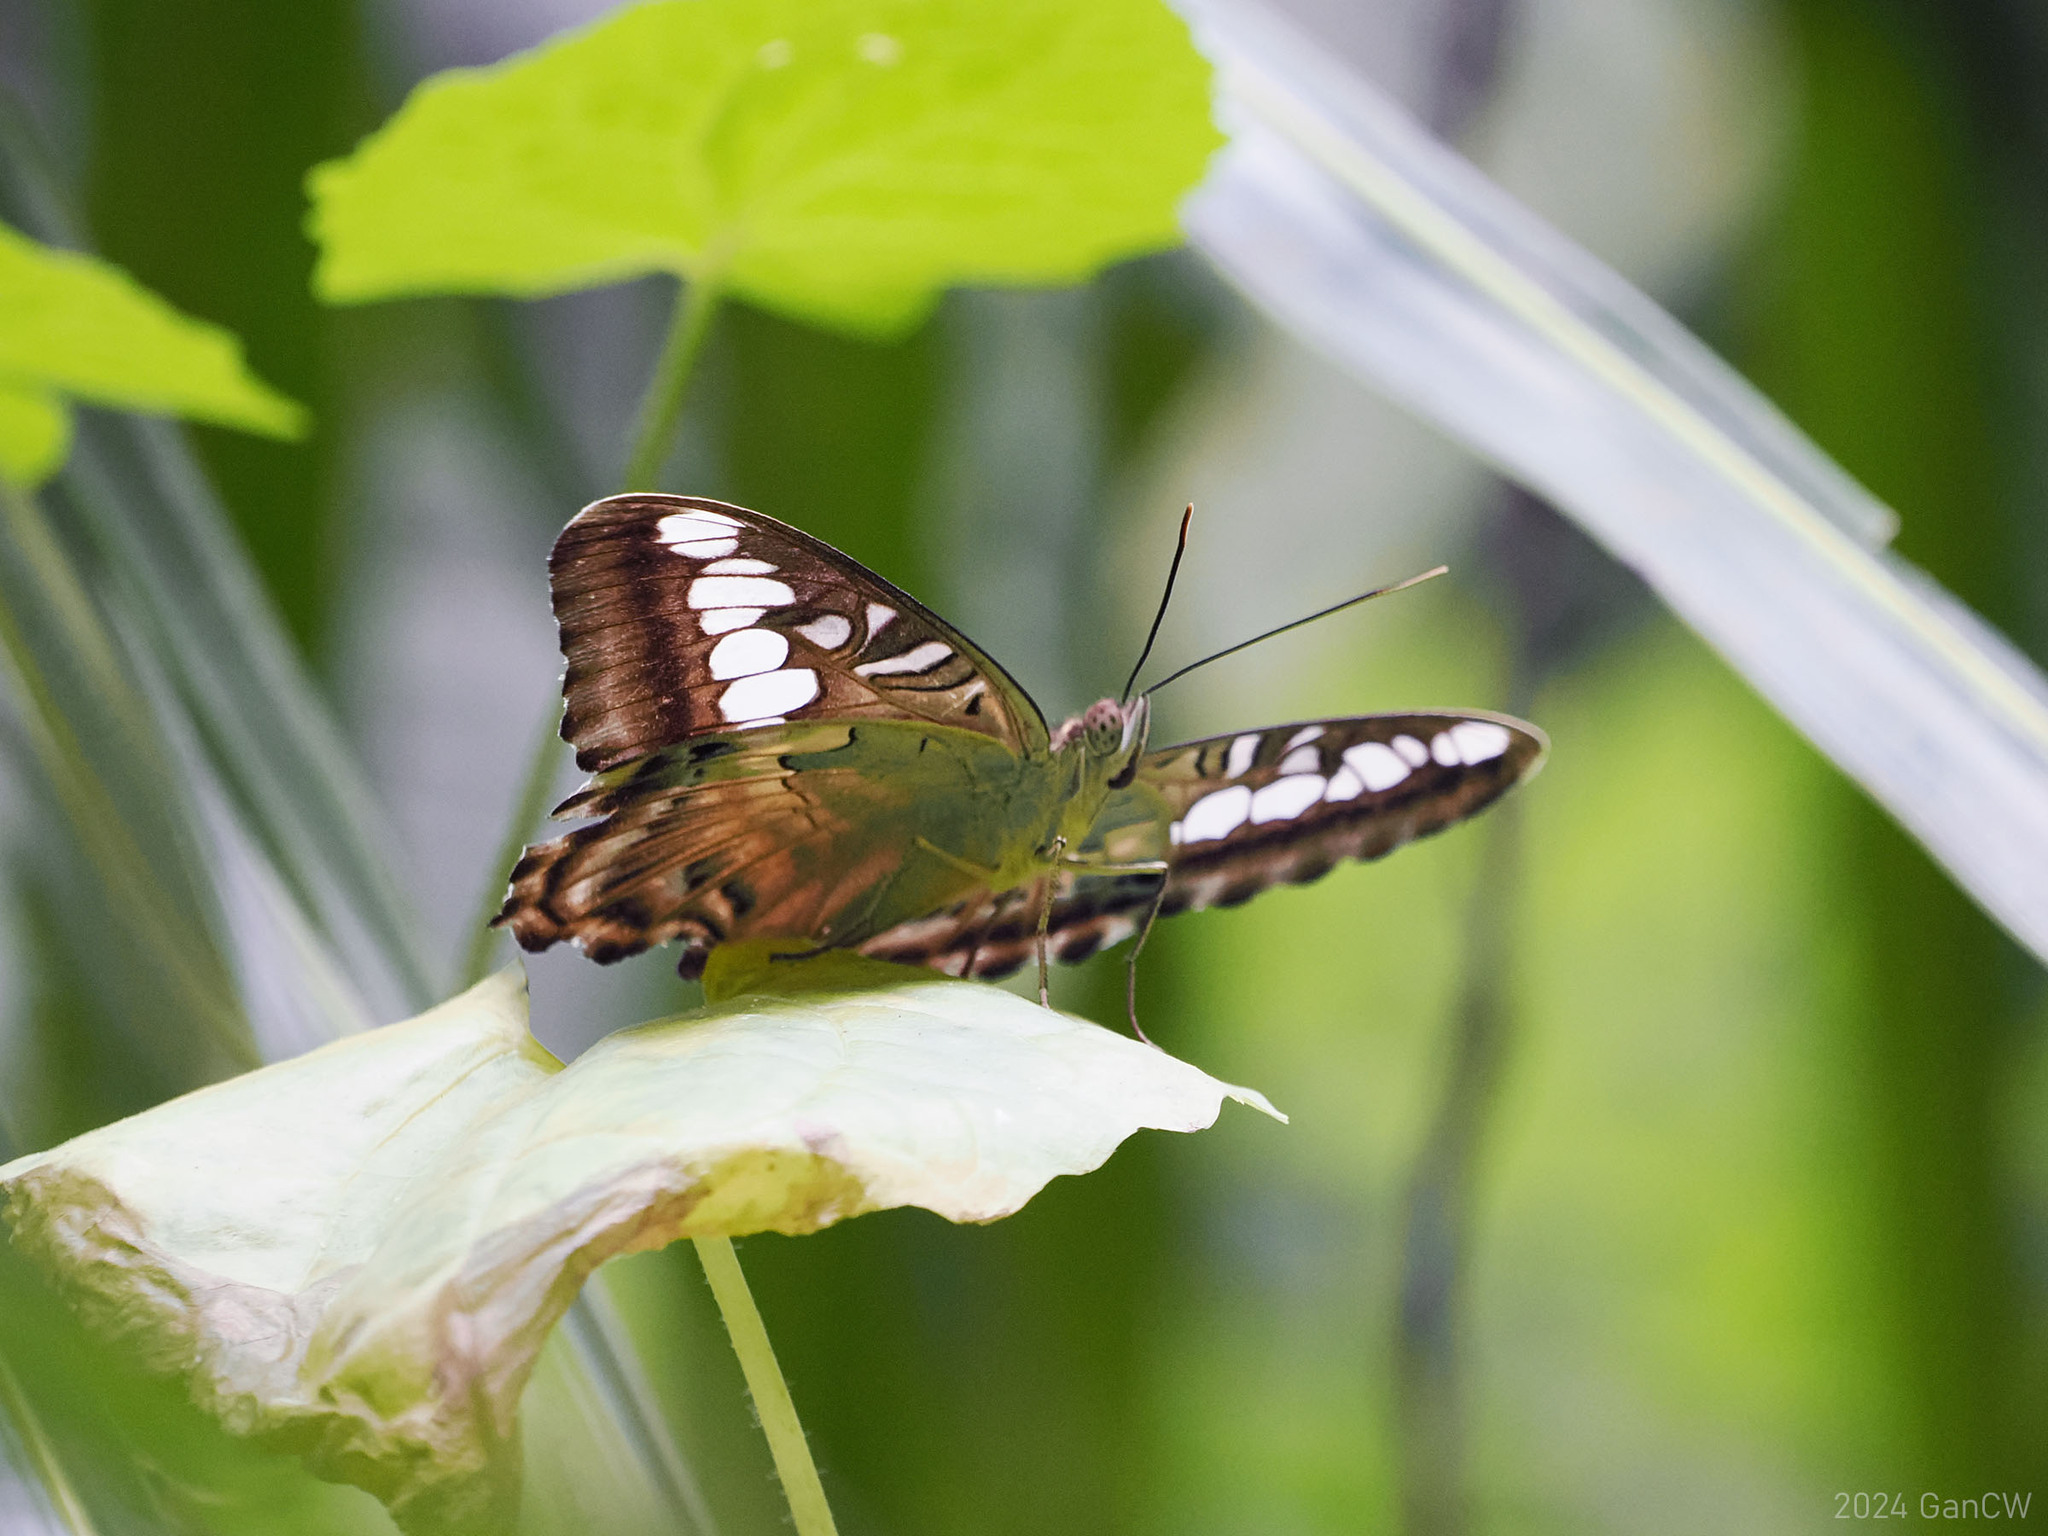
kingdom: Animalia
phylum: Arthropoda
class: Insecta
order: Lepidoptera
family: Nymphalidae
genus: Kallima
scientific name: Kallima sylvia
